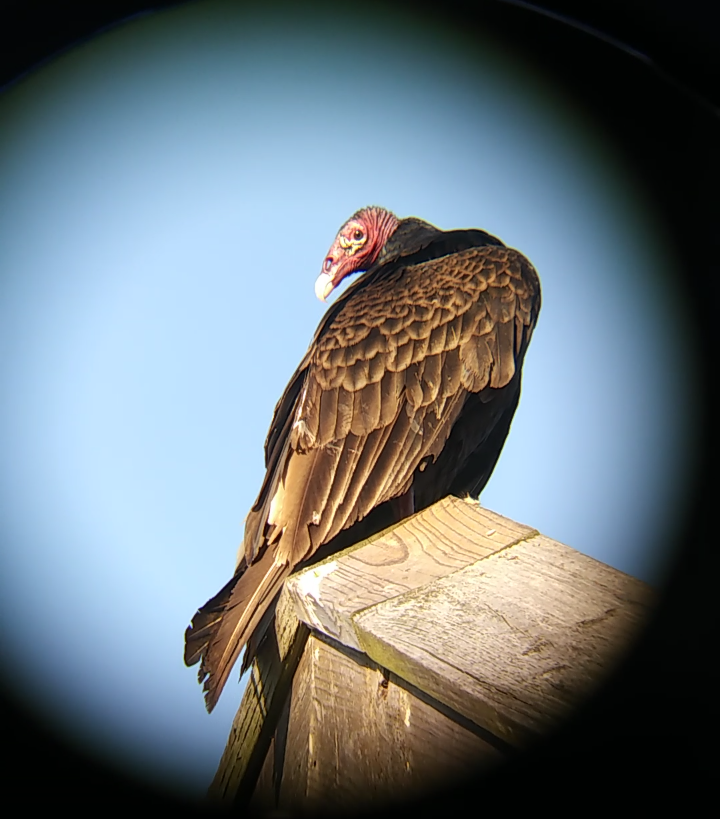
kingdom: Animalia
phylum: Chordata
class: Aves
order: Accipitriformes
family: Cathartidae
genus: Cathartes
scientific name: Cathartes aura
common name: Turkey vulture
